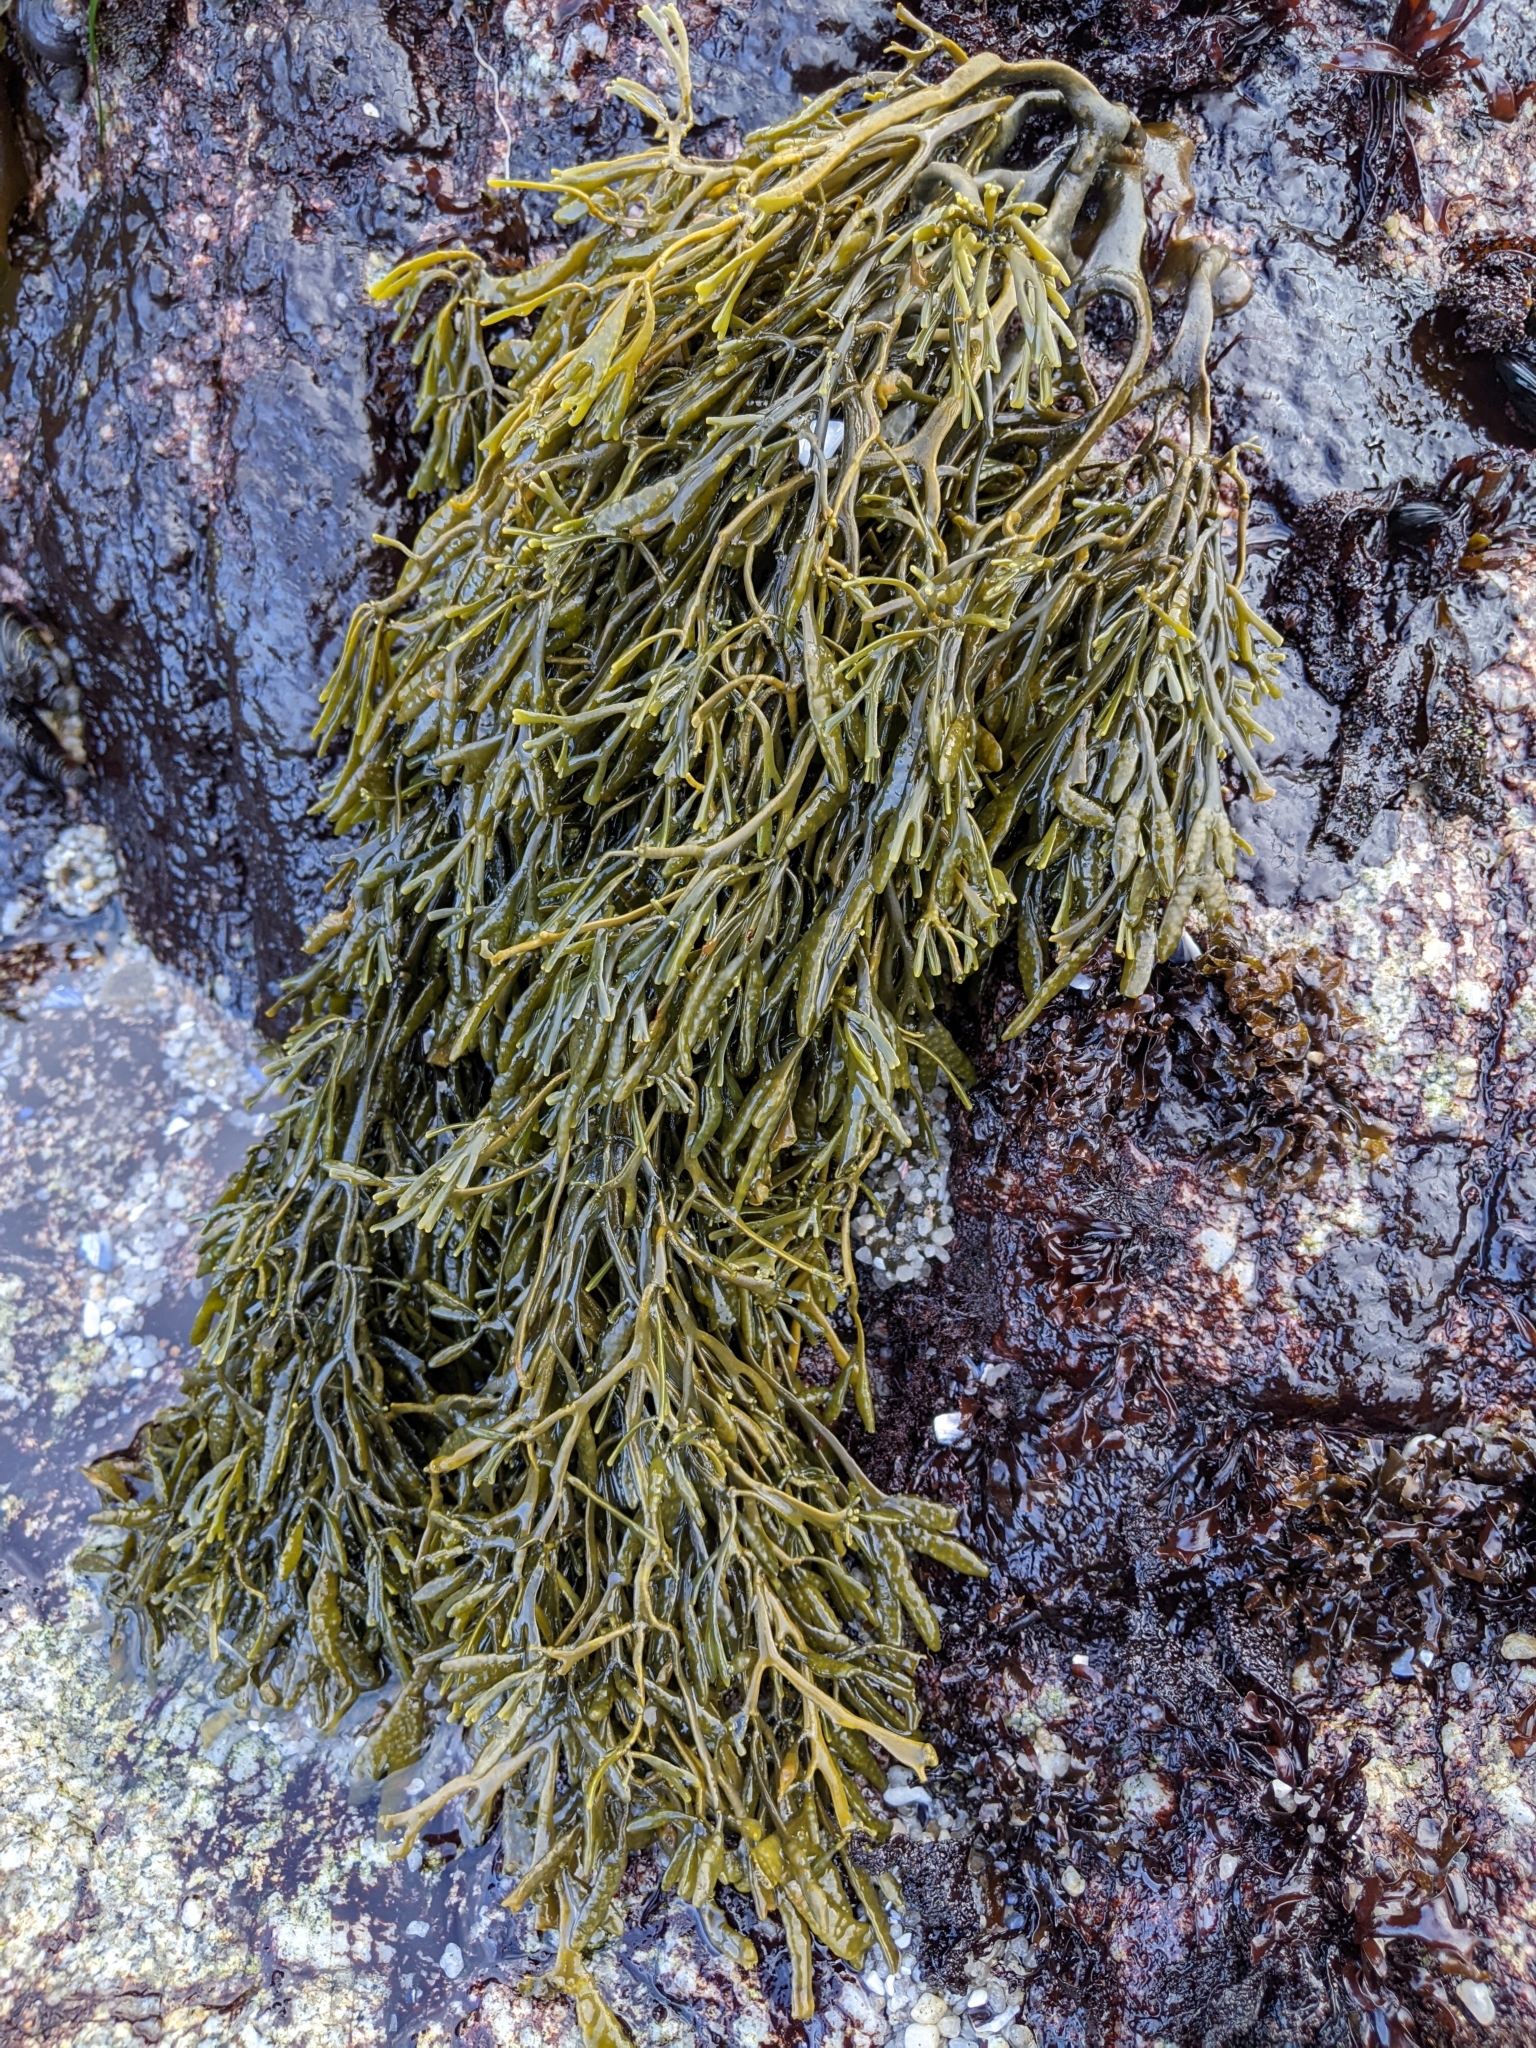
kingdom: Chromista
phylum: Ochrophyta
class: Phaeophyceae
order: Fucales
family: Fucaceae
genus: Silvetia
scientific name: Silvetia
